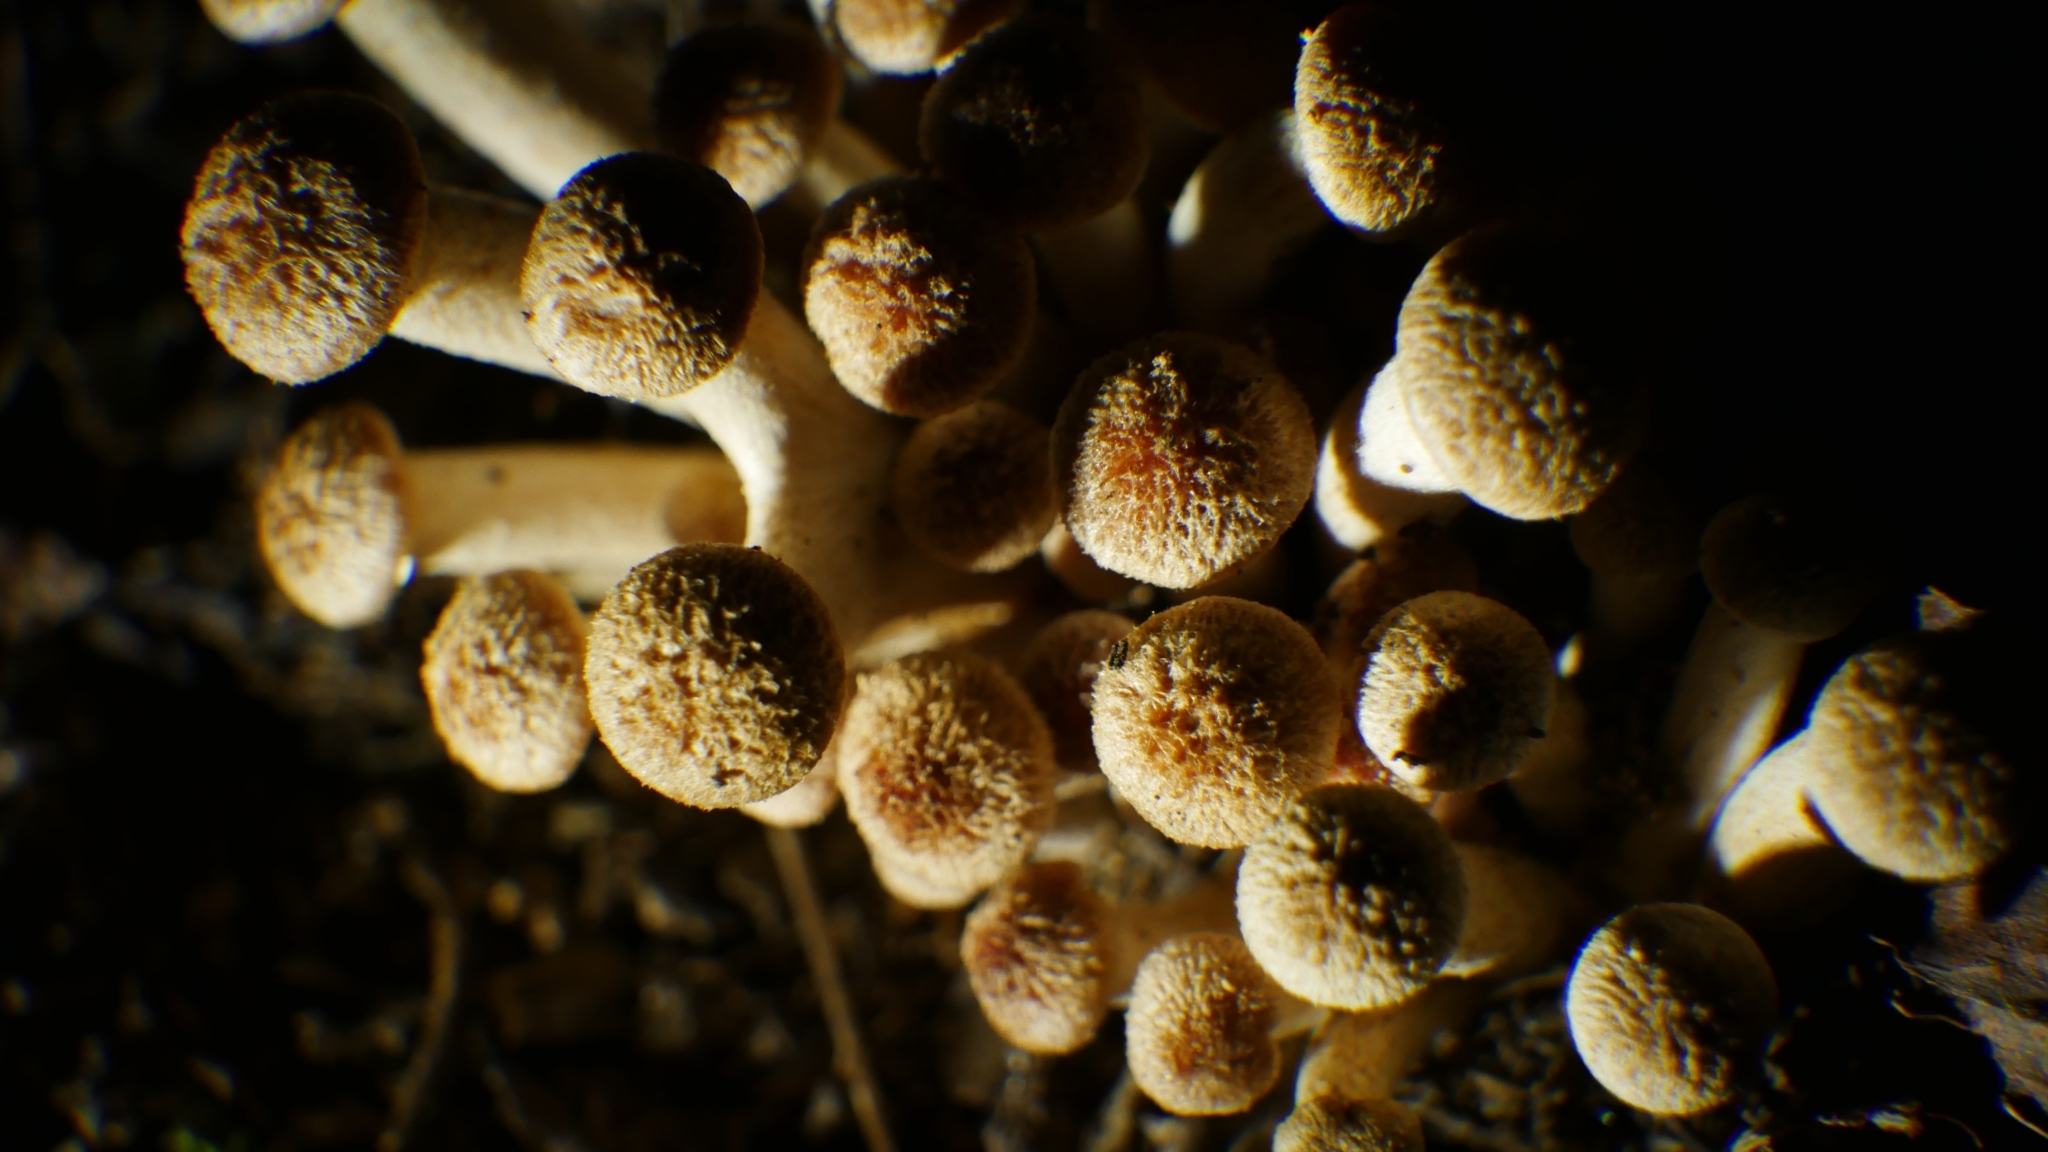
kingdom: Fungi
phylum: Basidiomycota
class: Agaricomycetes
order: Agaricales
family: Physalacriaceae
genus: Desarmillaria
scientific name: Desarmillaria caespitosa
